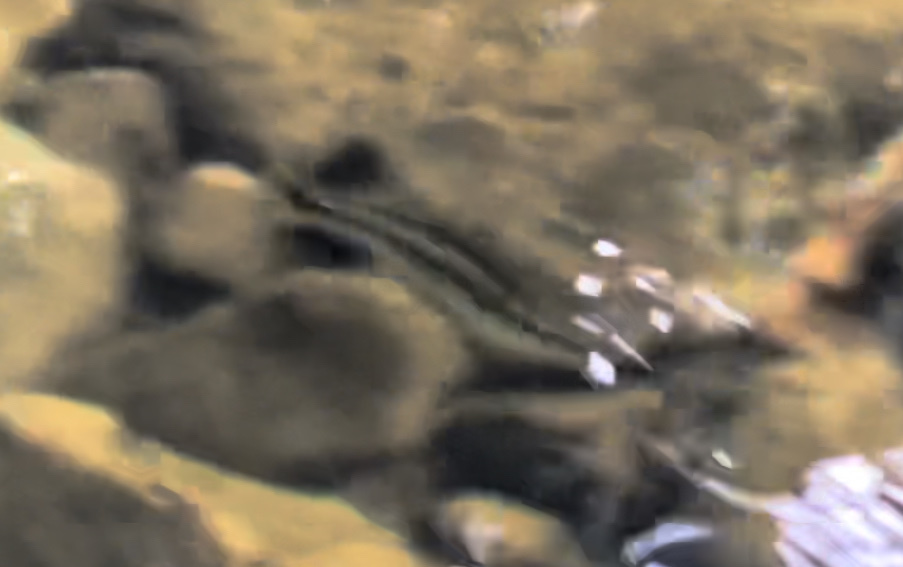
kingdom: Animalia
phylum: Chordata
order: Mugiliformes
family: Mugilidae
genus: Dajaus
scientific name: Dajaus monticola
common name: Mountain mullet
